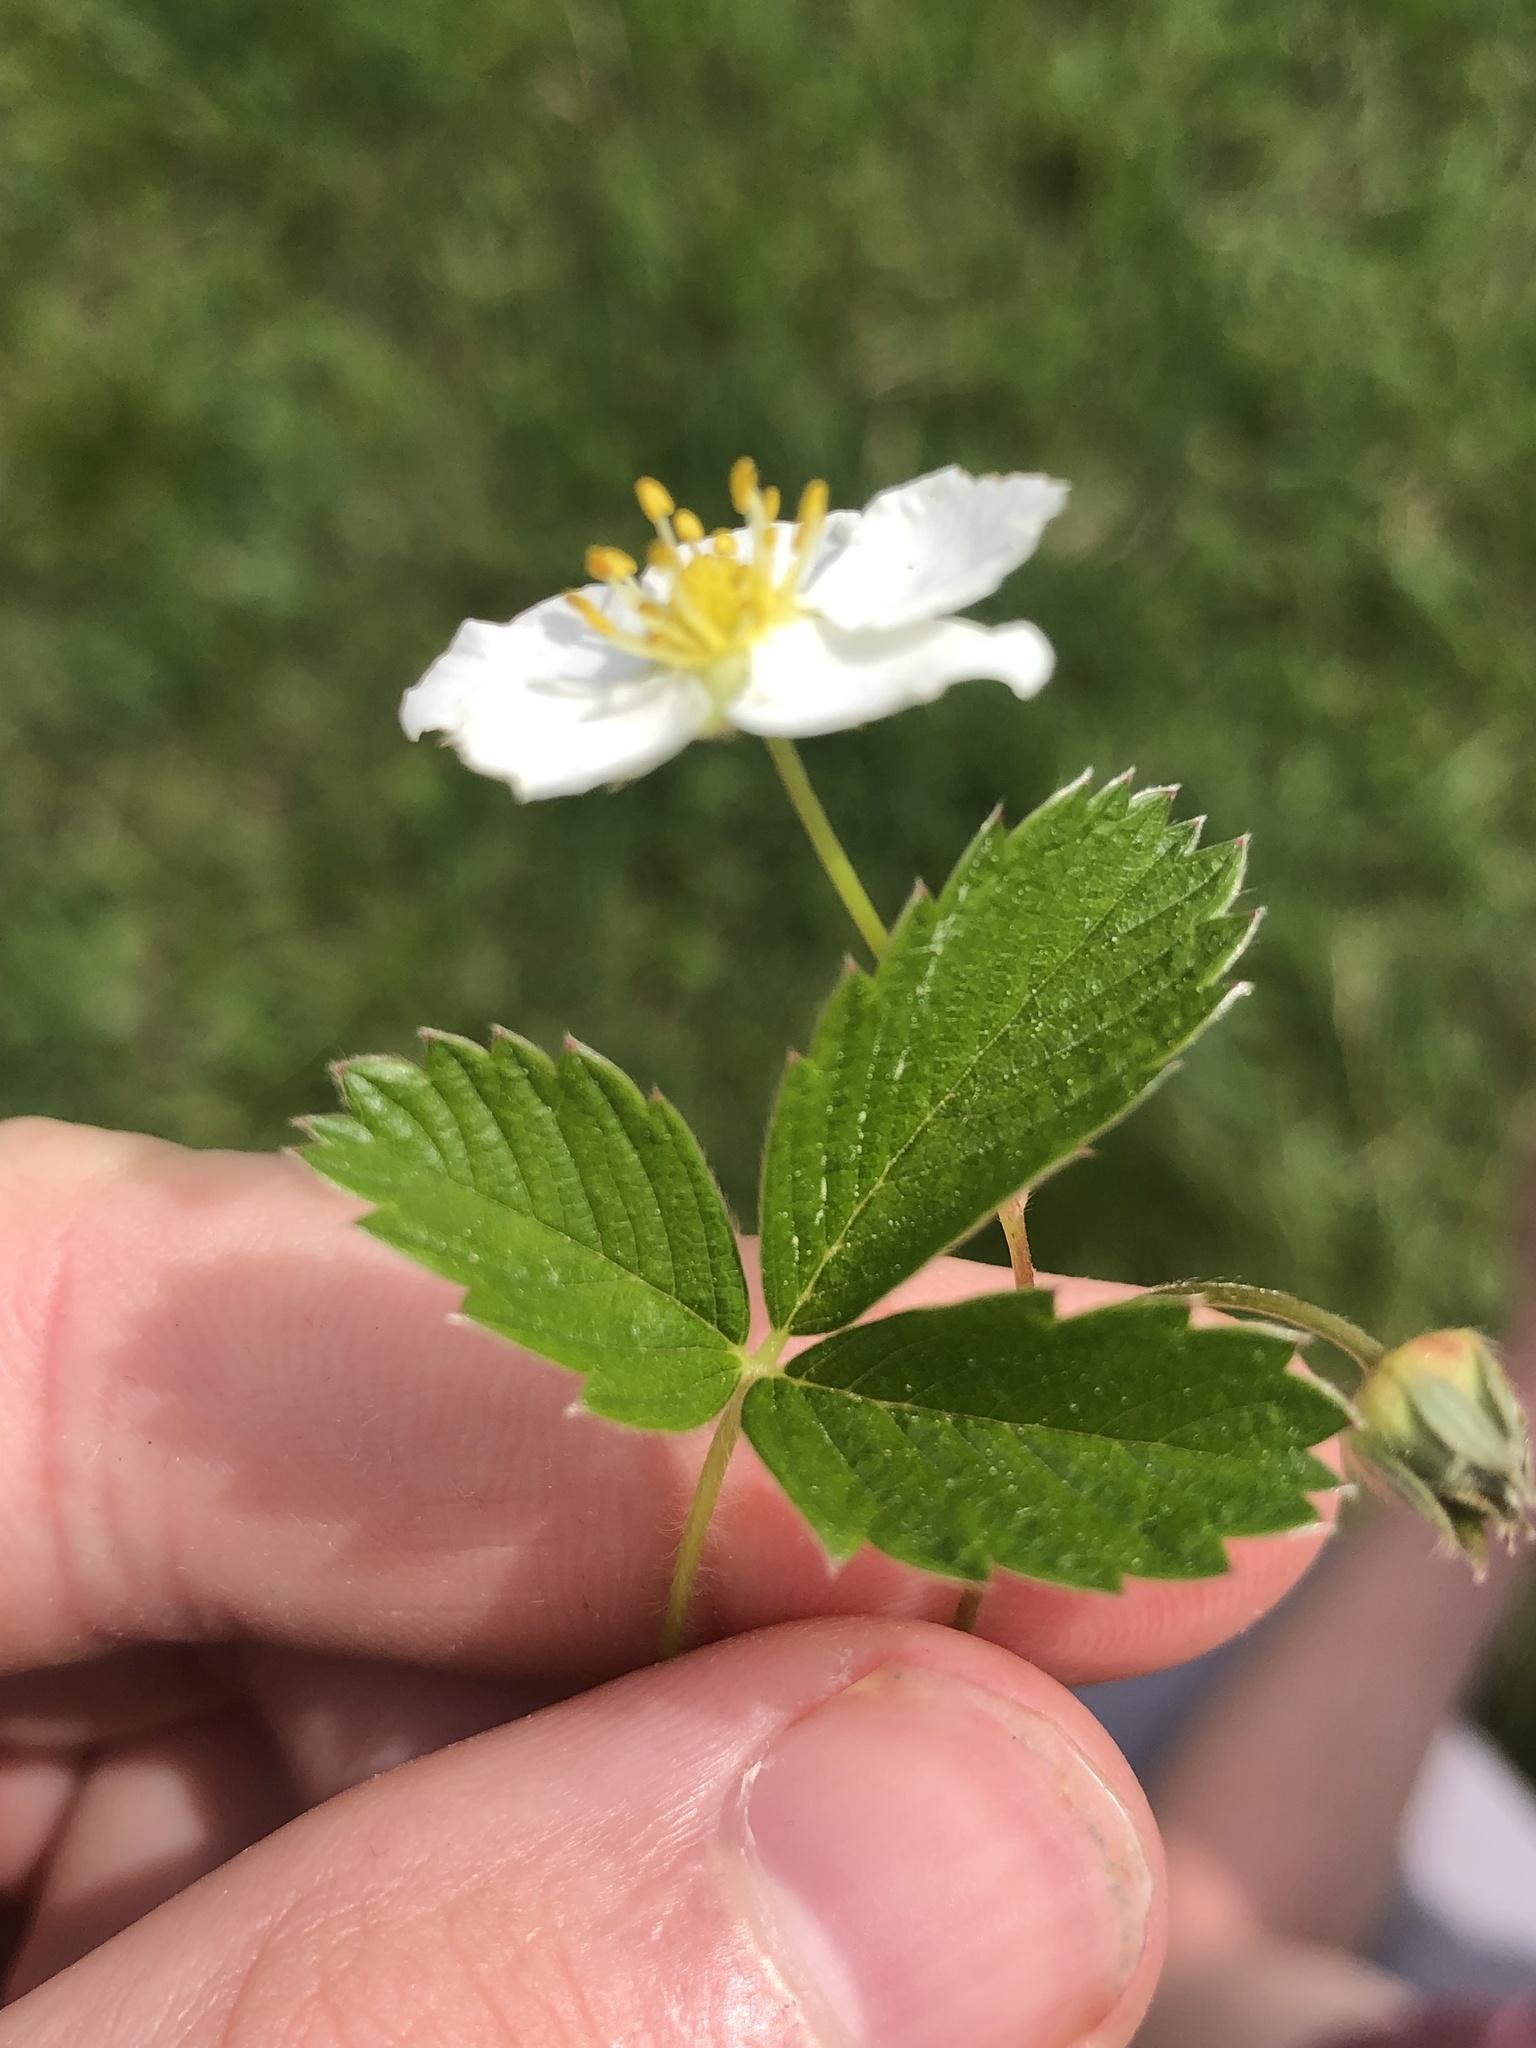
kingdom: Plantae
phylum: Tracheophyta
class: Magnoliopsida
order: Rosales
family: Rosaceae
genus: Fragaria
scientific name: Fragaria viridis
